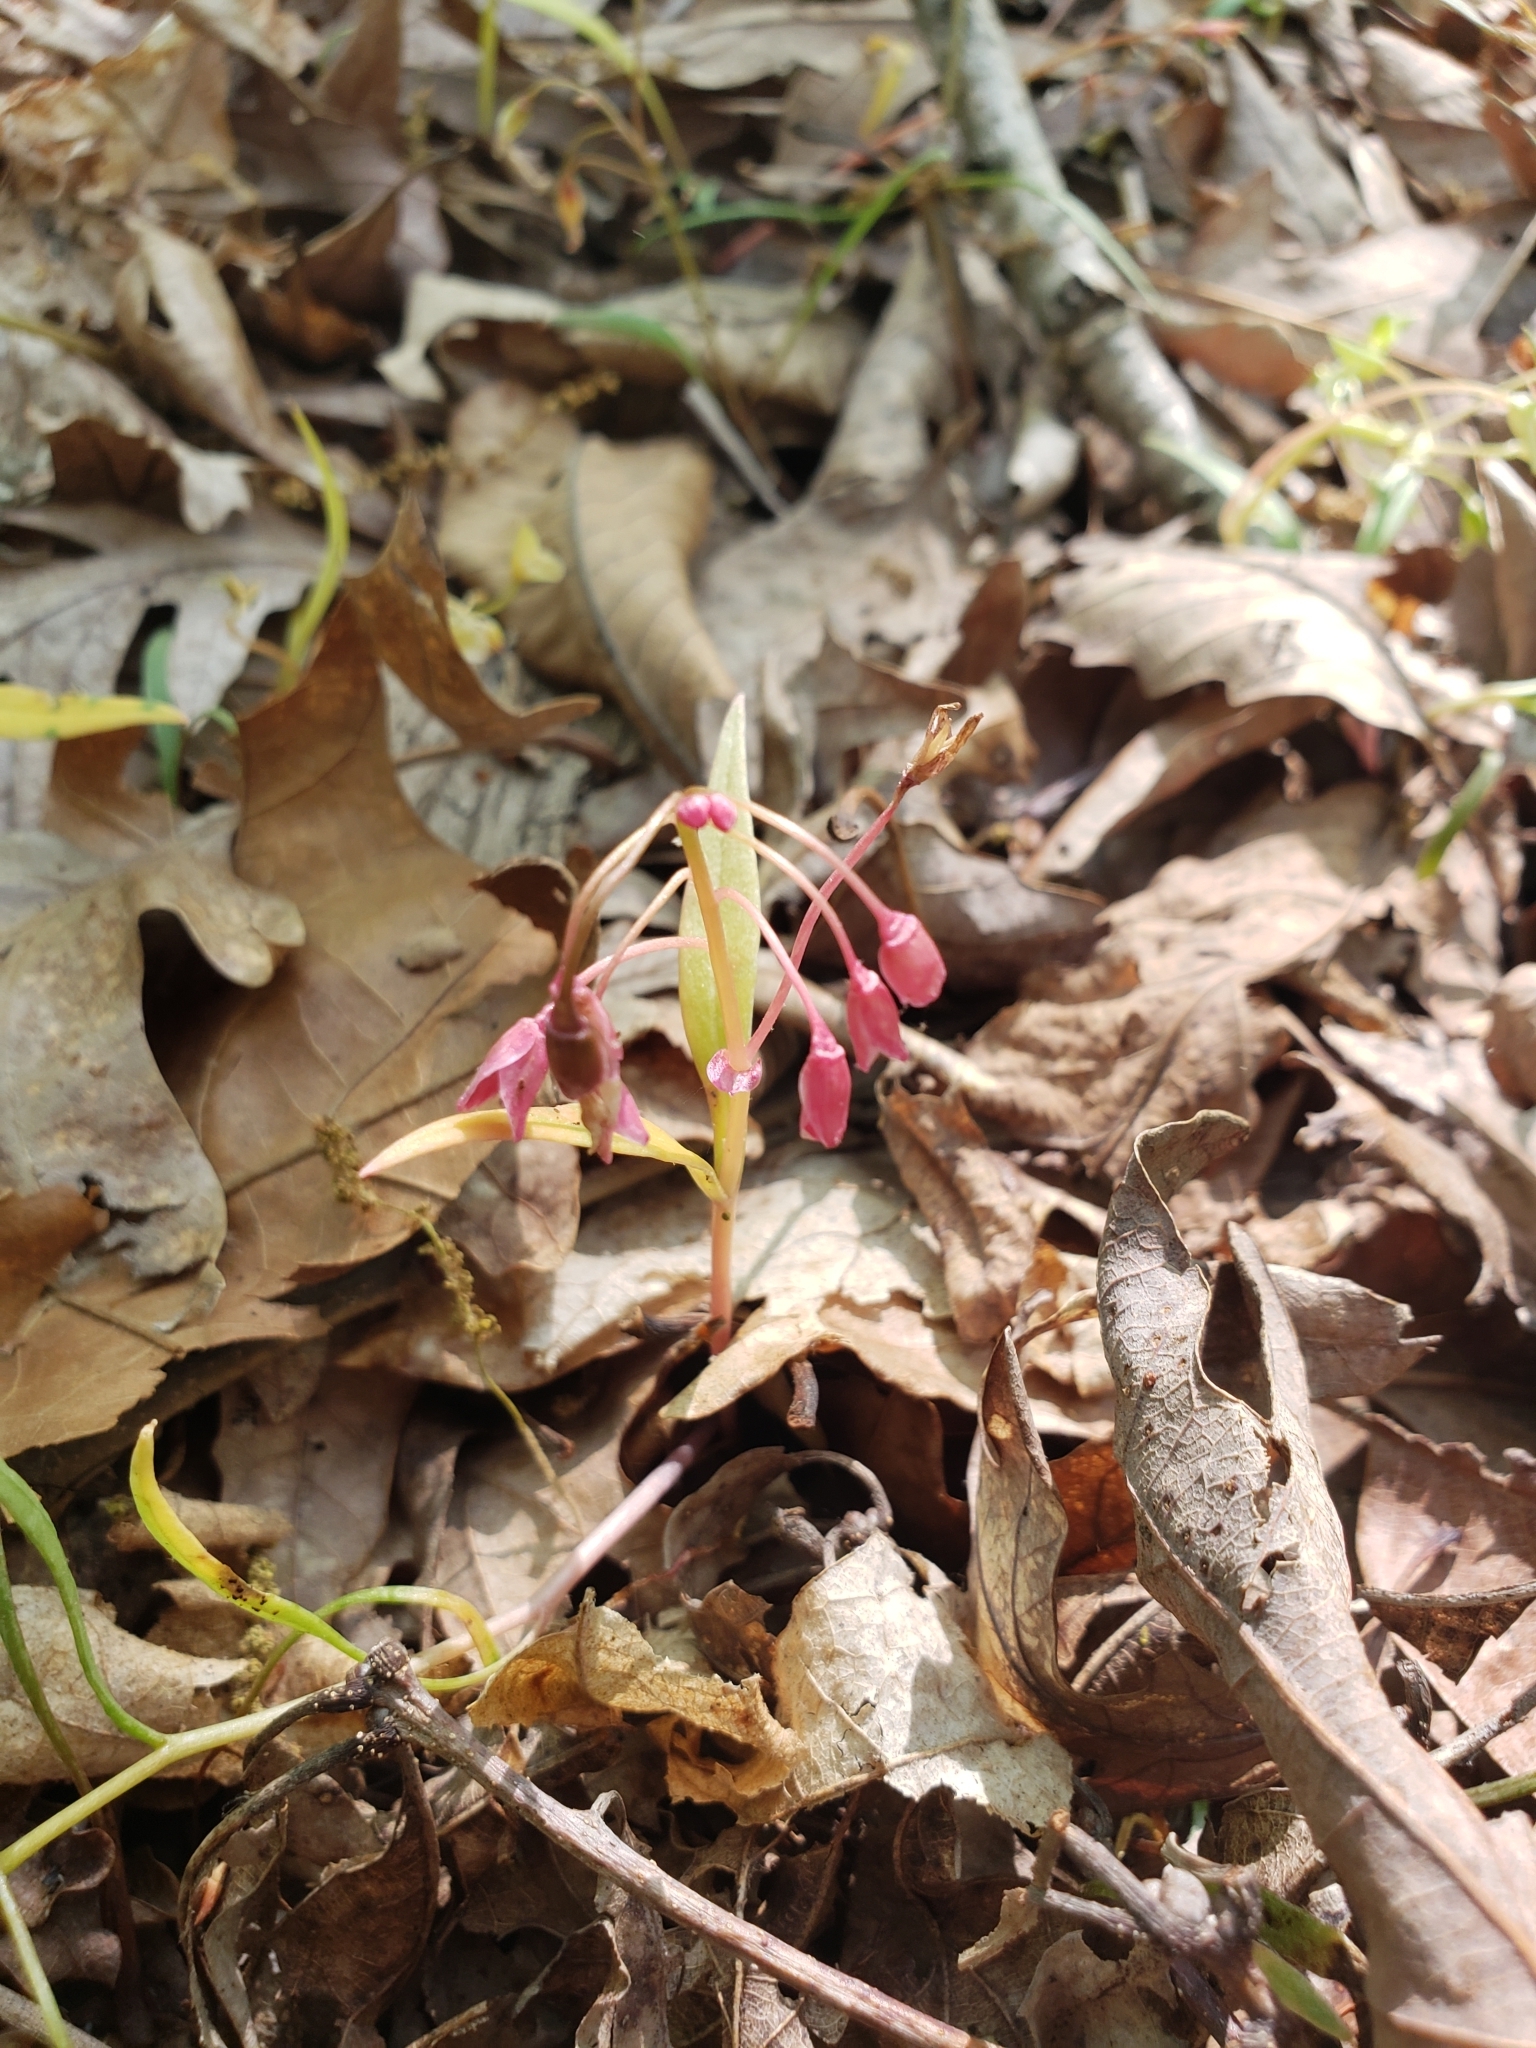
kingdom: Plantae
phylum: Tracheophyta
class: Magnoliopsida
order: Caryophyllales
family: Montiaceae
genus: Claytonia
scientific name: Claytonia virginica
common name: Virginia springbeauty
